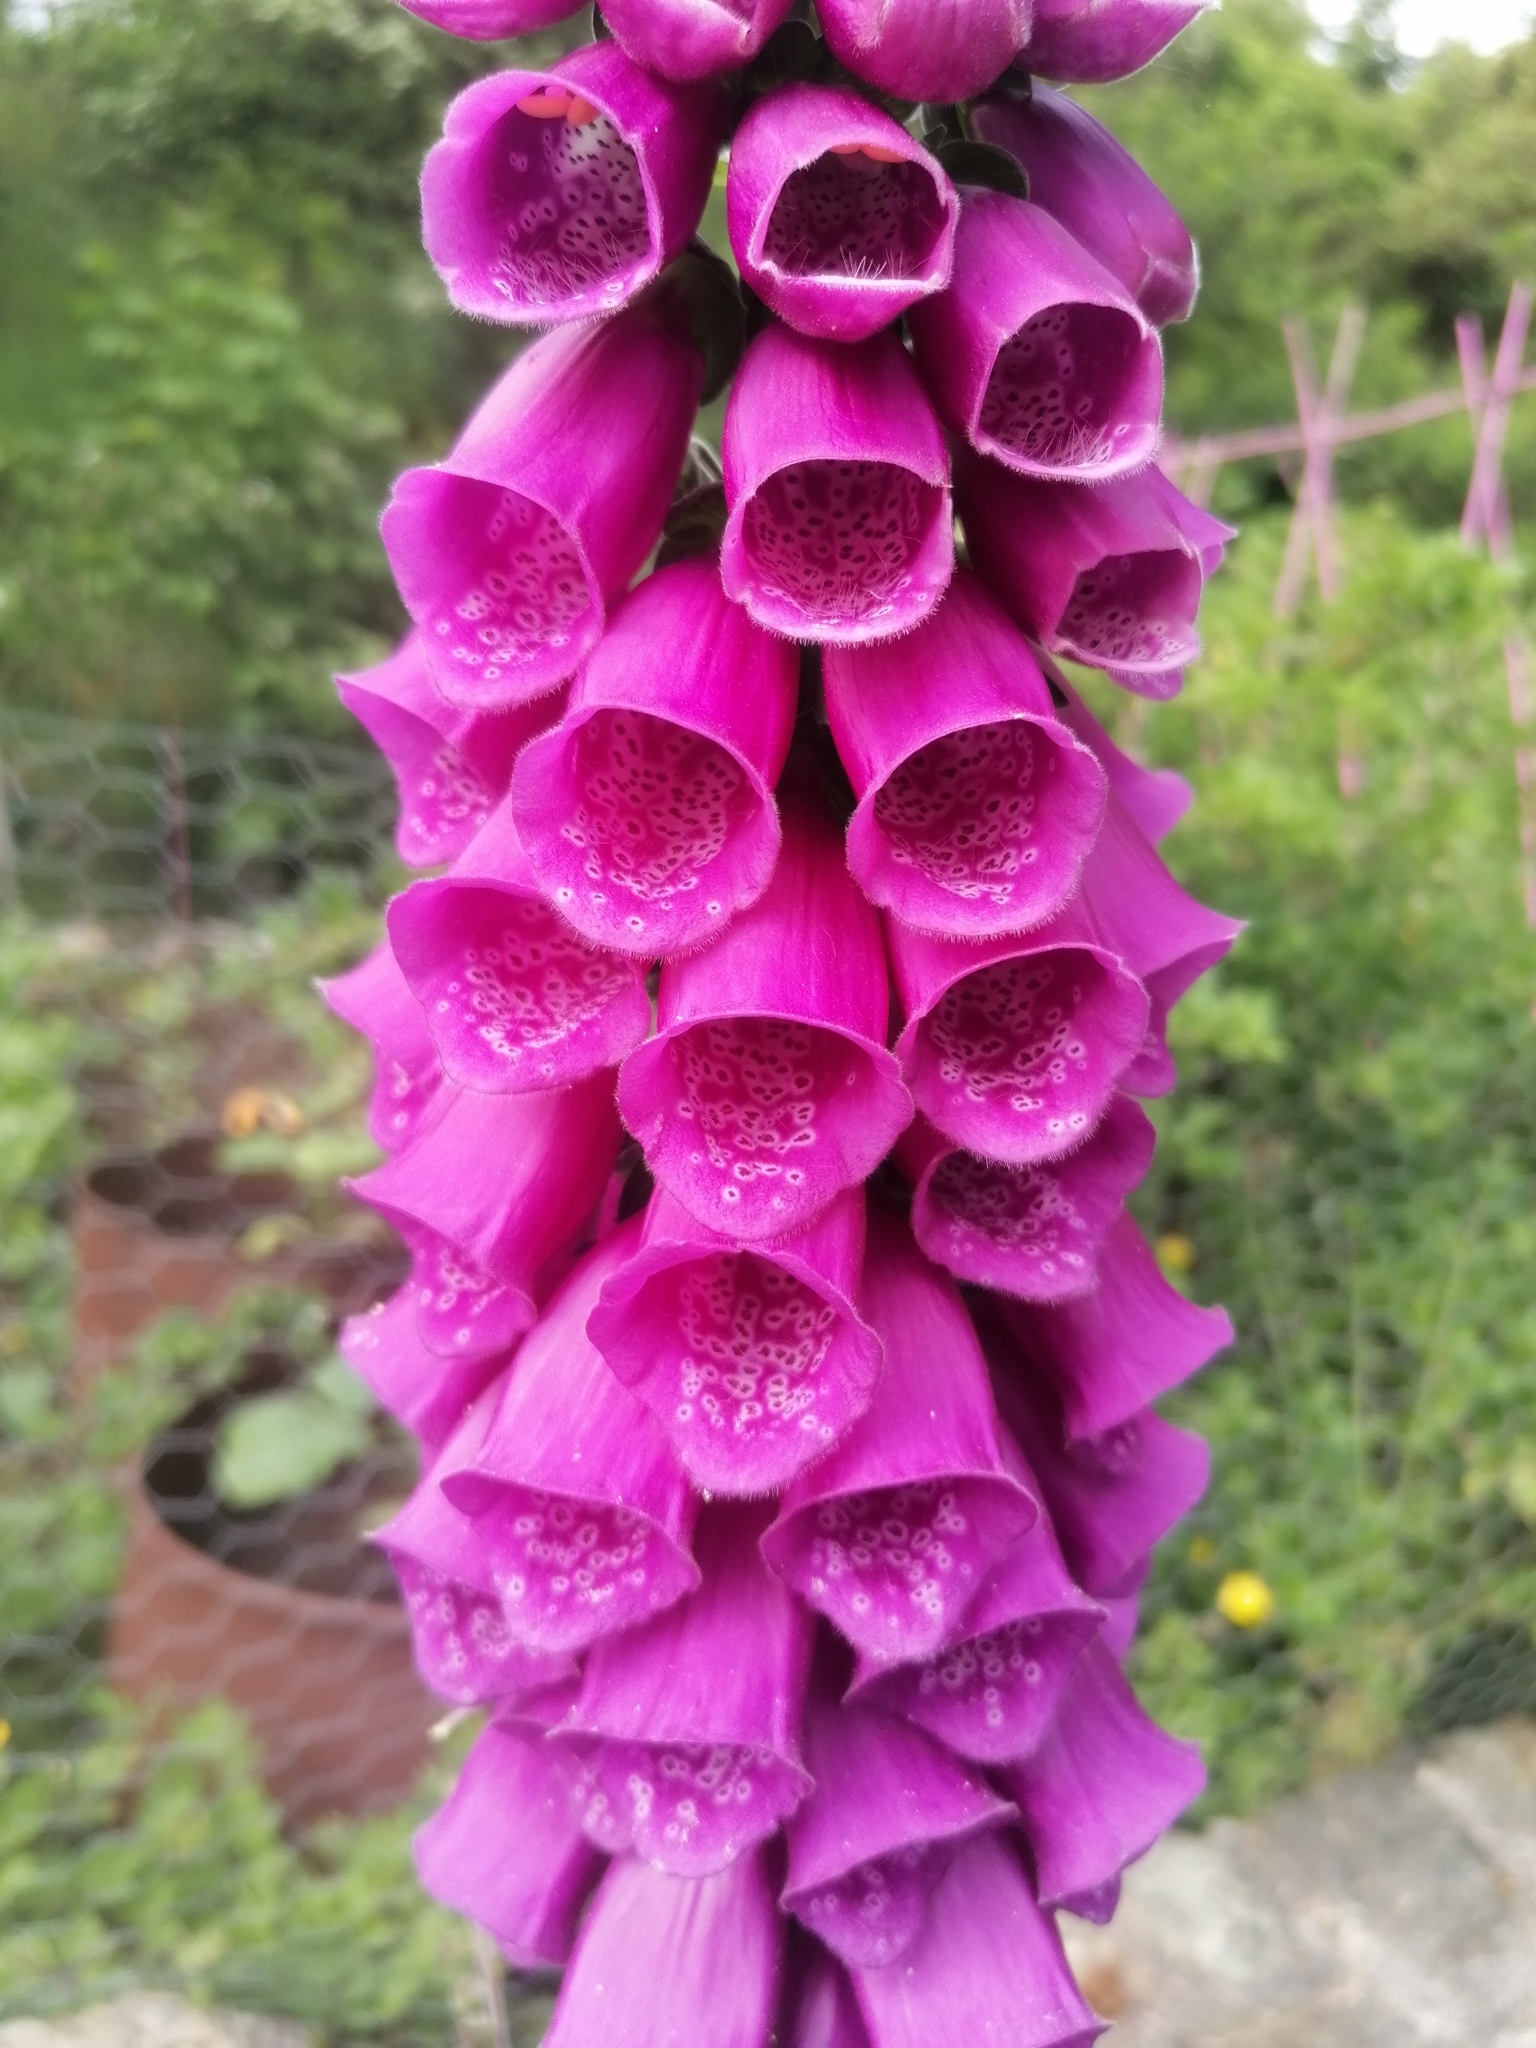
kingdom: Plantae
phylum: Tracheophyta
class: Magnoliopsida
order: Lamiales
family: Plantaginaceae
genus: Digitalis
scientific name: Digitalis purpurea
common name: Foxglove
